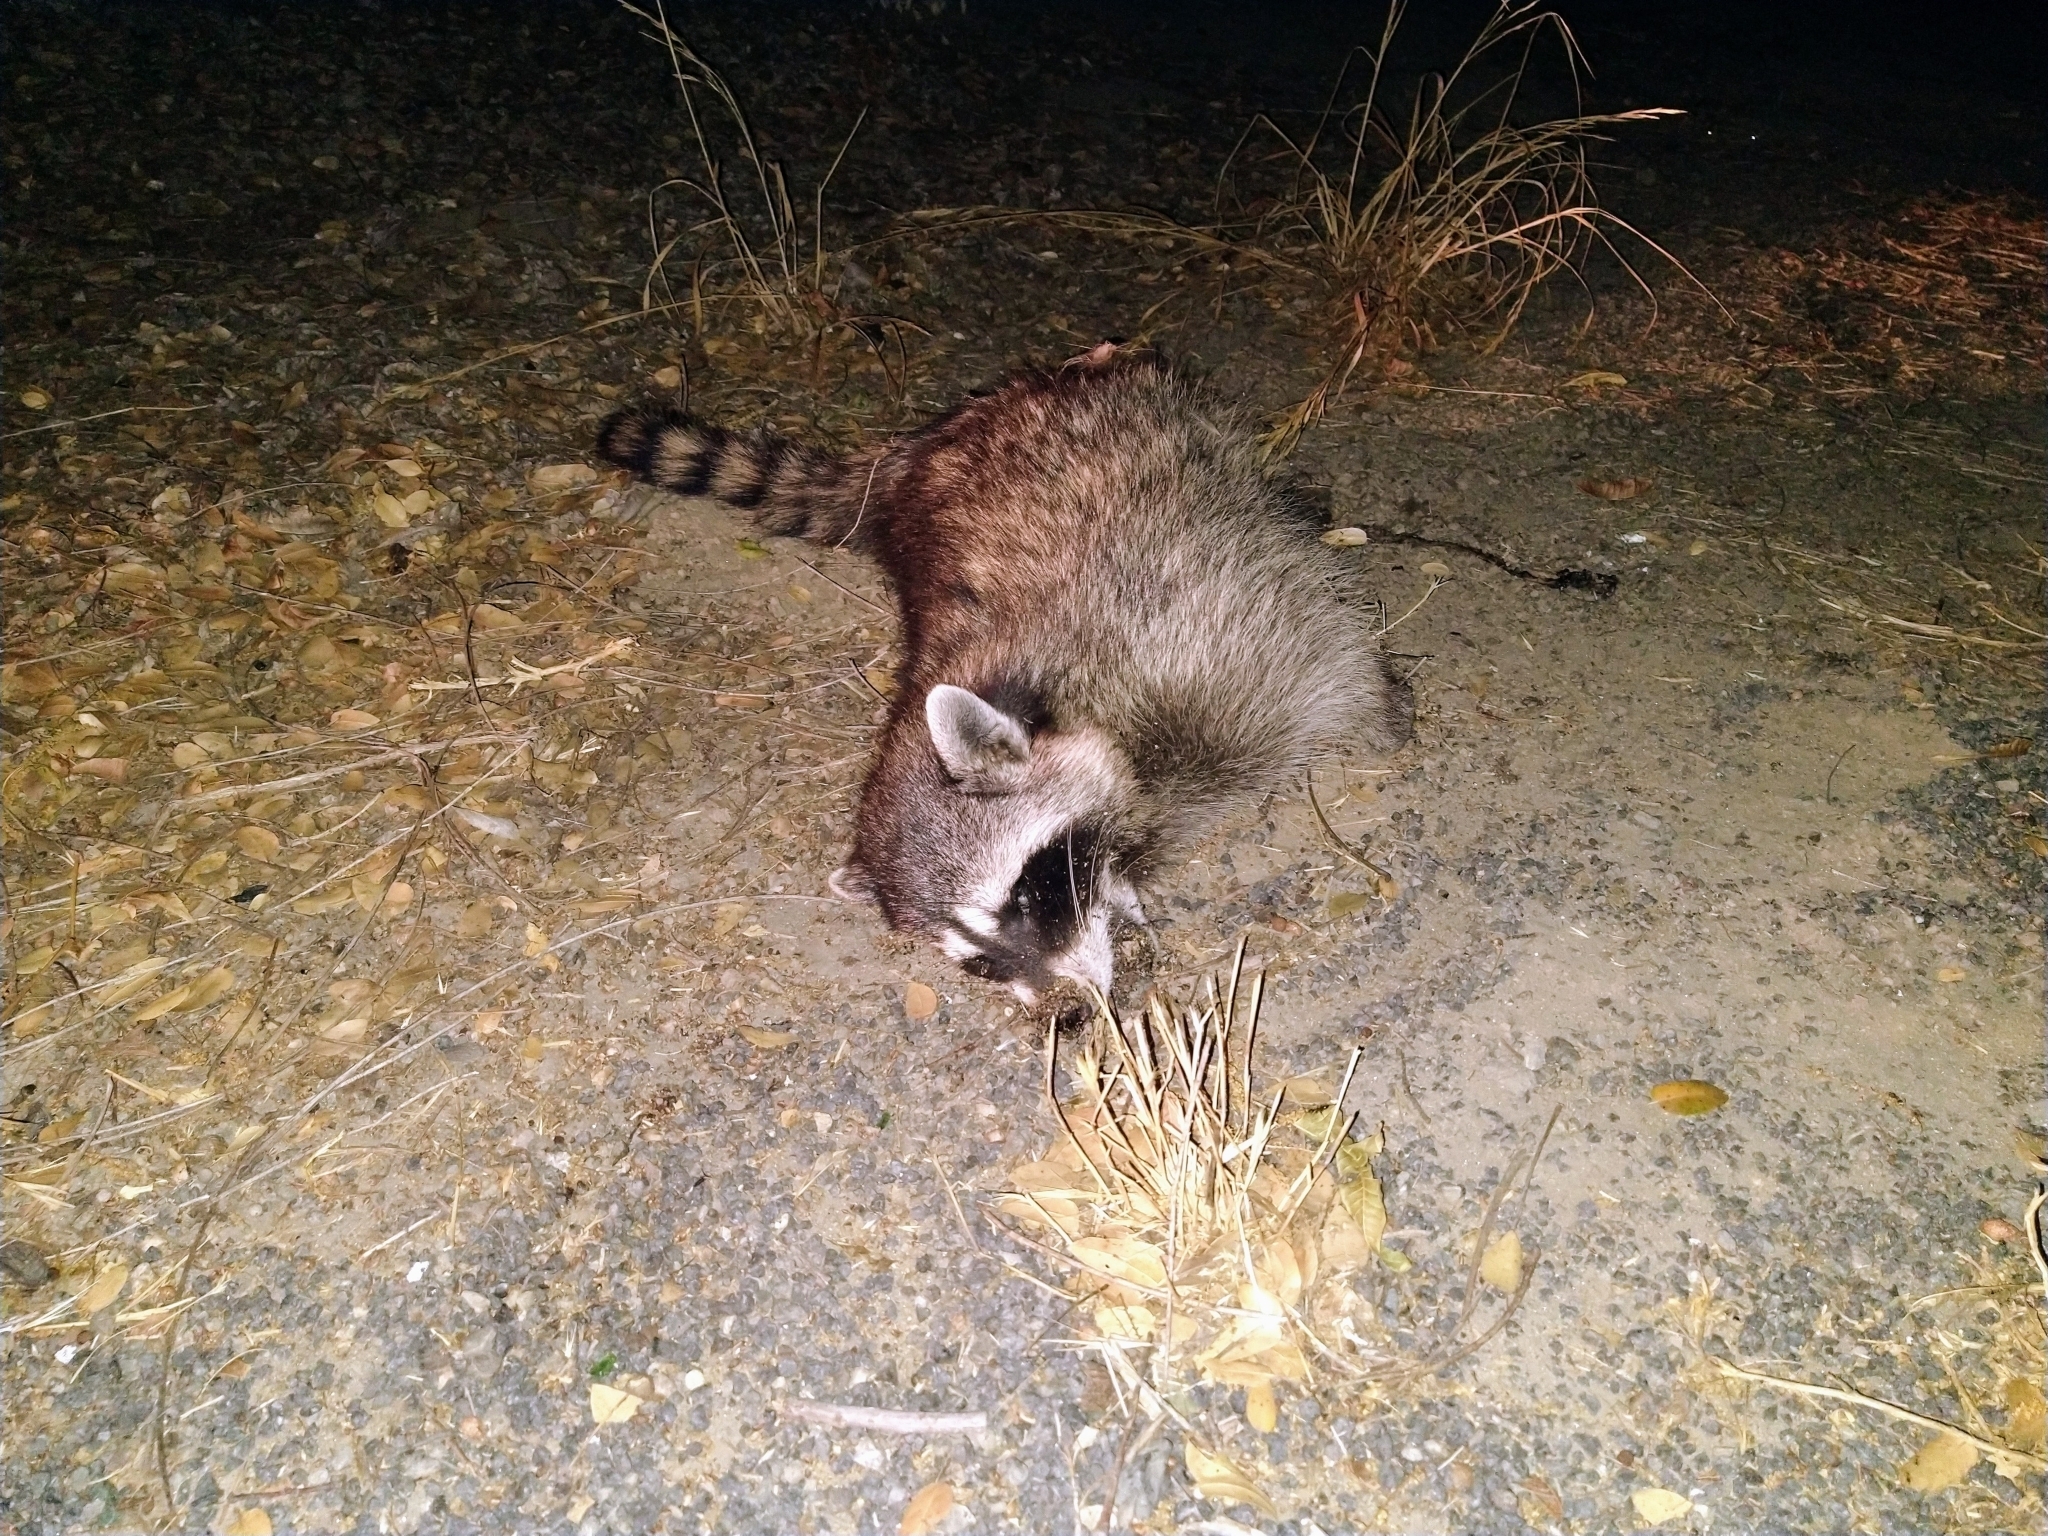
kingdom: Animalia
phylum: Chordata
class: Mammalia
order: Carnivora
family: Procyonidae
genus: Procyon
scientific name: Procyon lotor
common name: Raccoon
